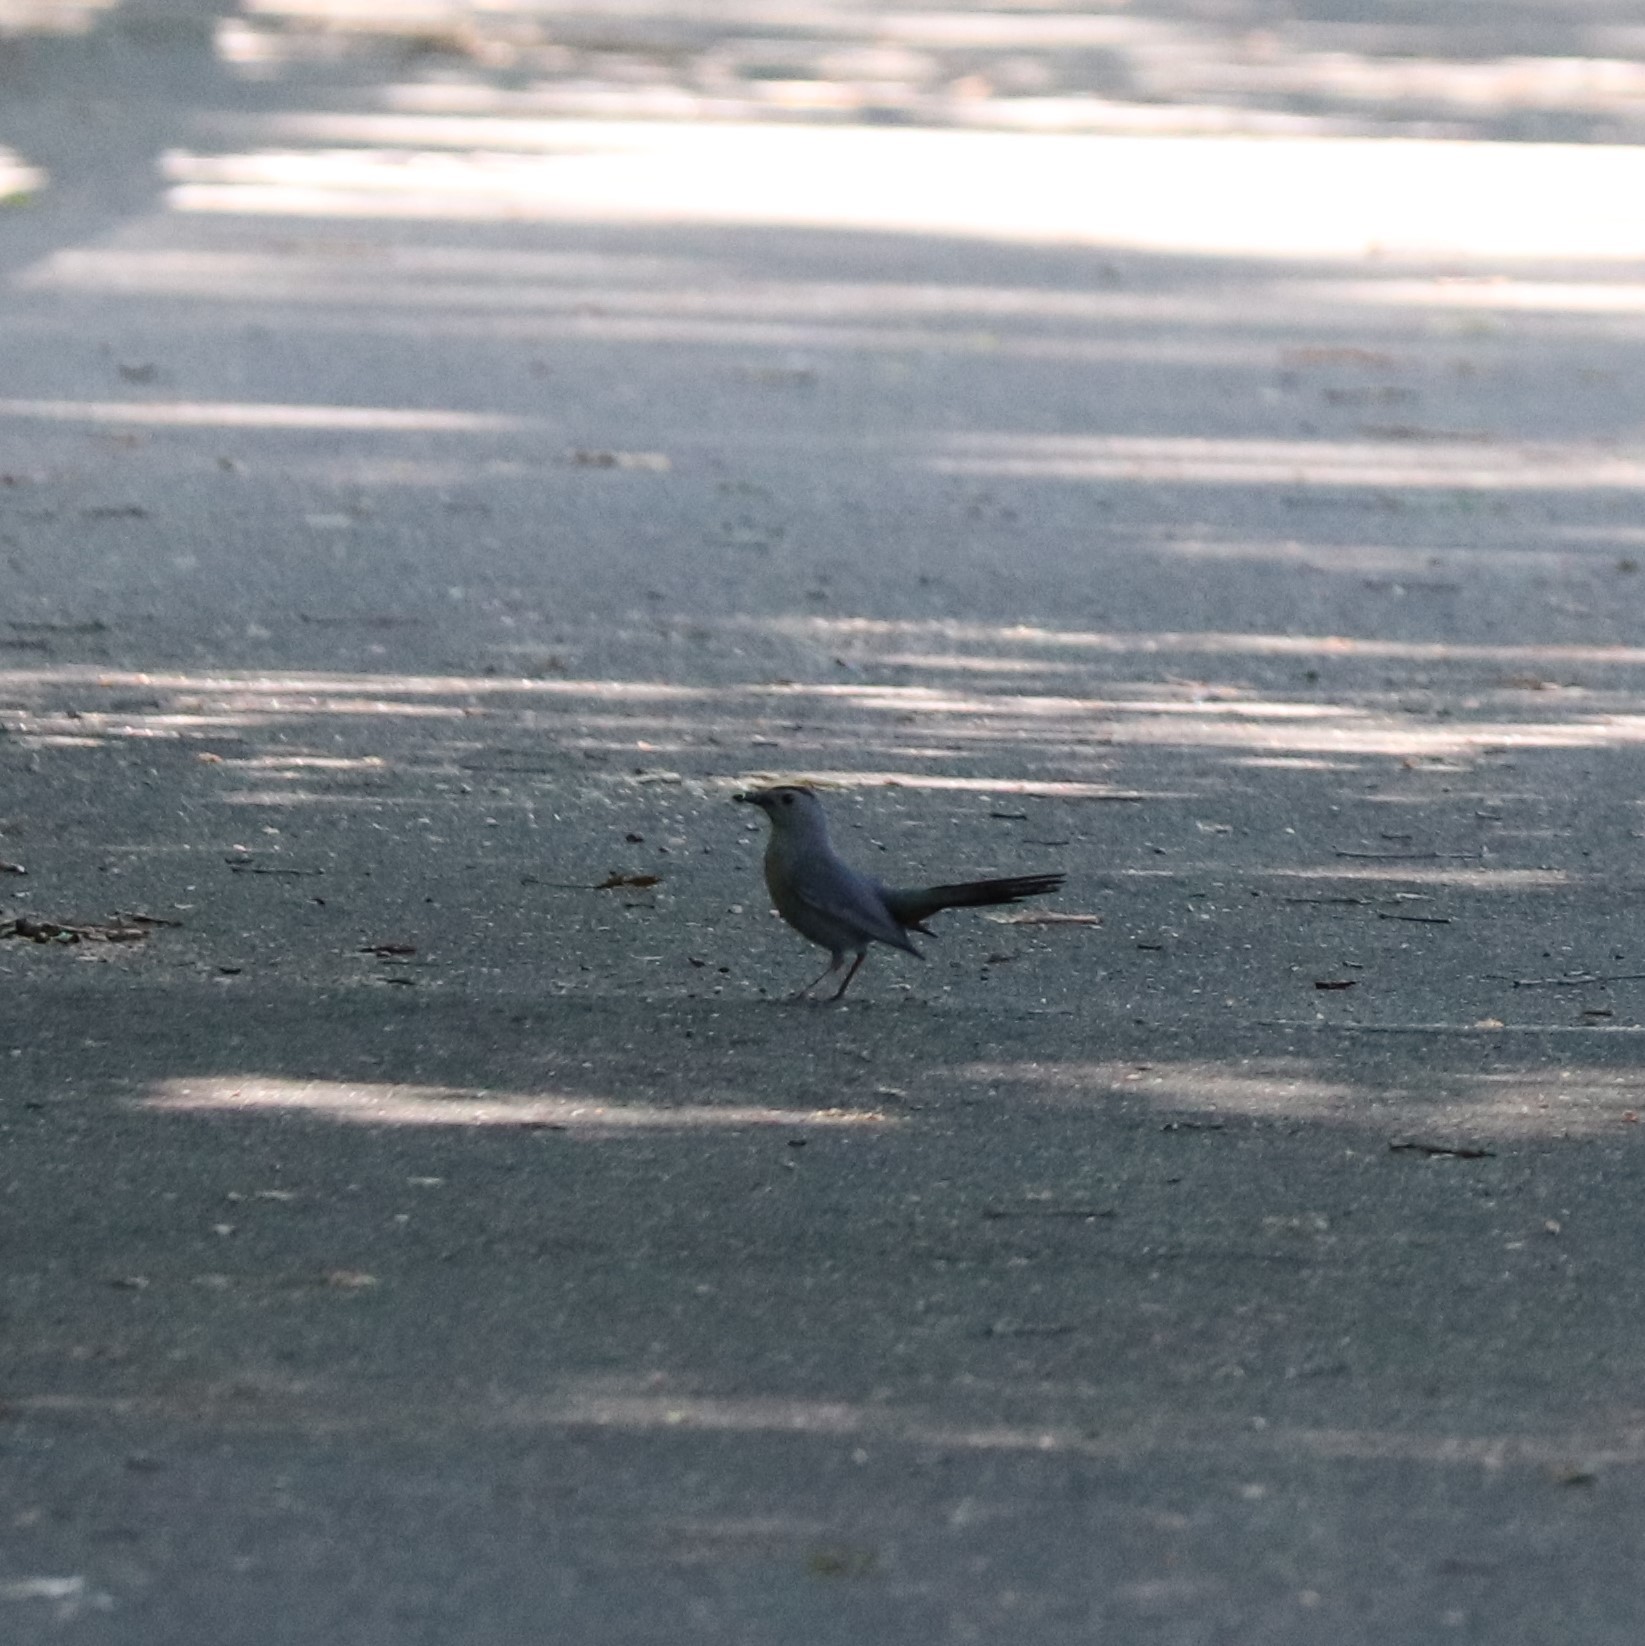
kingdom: Animalia
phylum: Chordata
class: Aves
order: Passeriformes
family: Mimidae
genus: Dumetella
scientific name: Dumetella carolinensis
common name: Gray catbird
